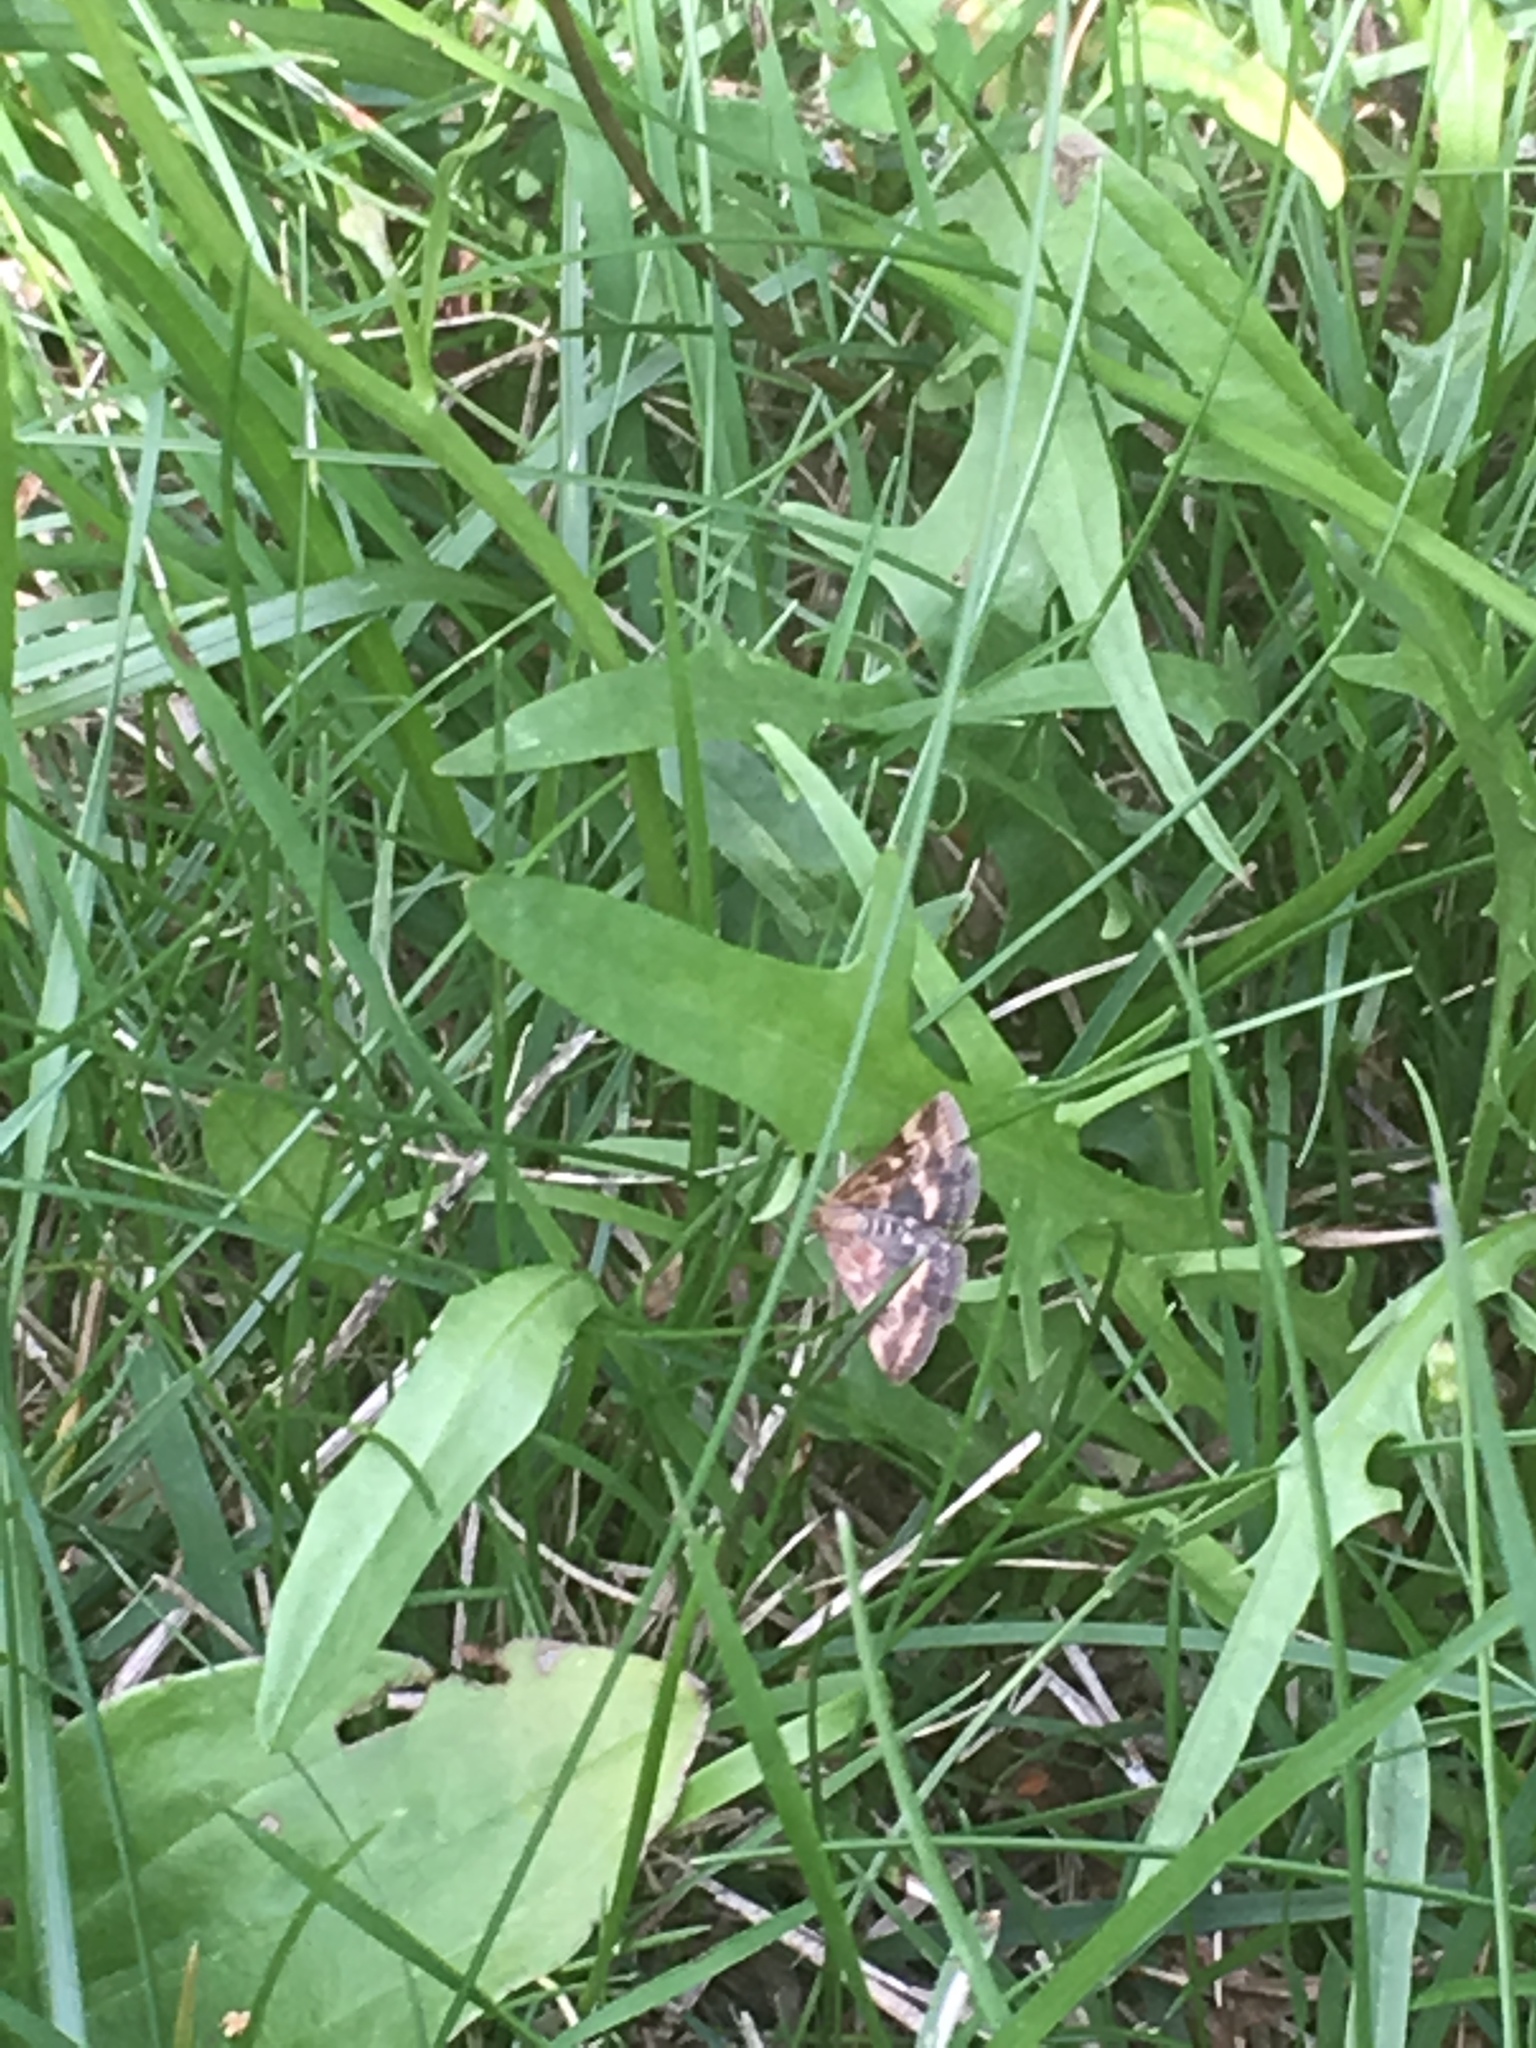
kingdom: Animalia
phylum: Arthropoda
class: Insecta
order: Lepidoptera
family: Crambidae
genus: Pyrausta
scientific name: Pyrausta despicata
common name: Straw-barred pearl
